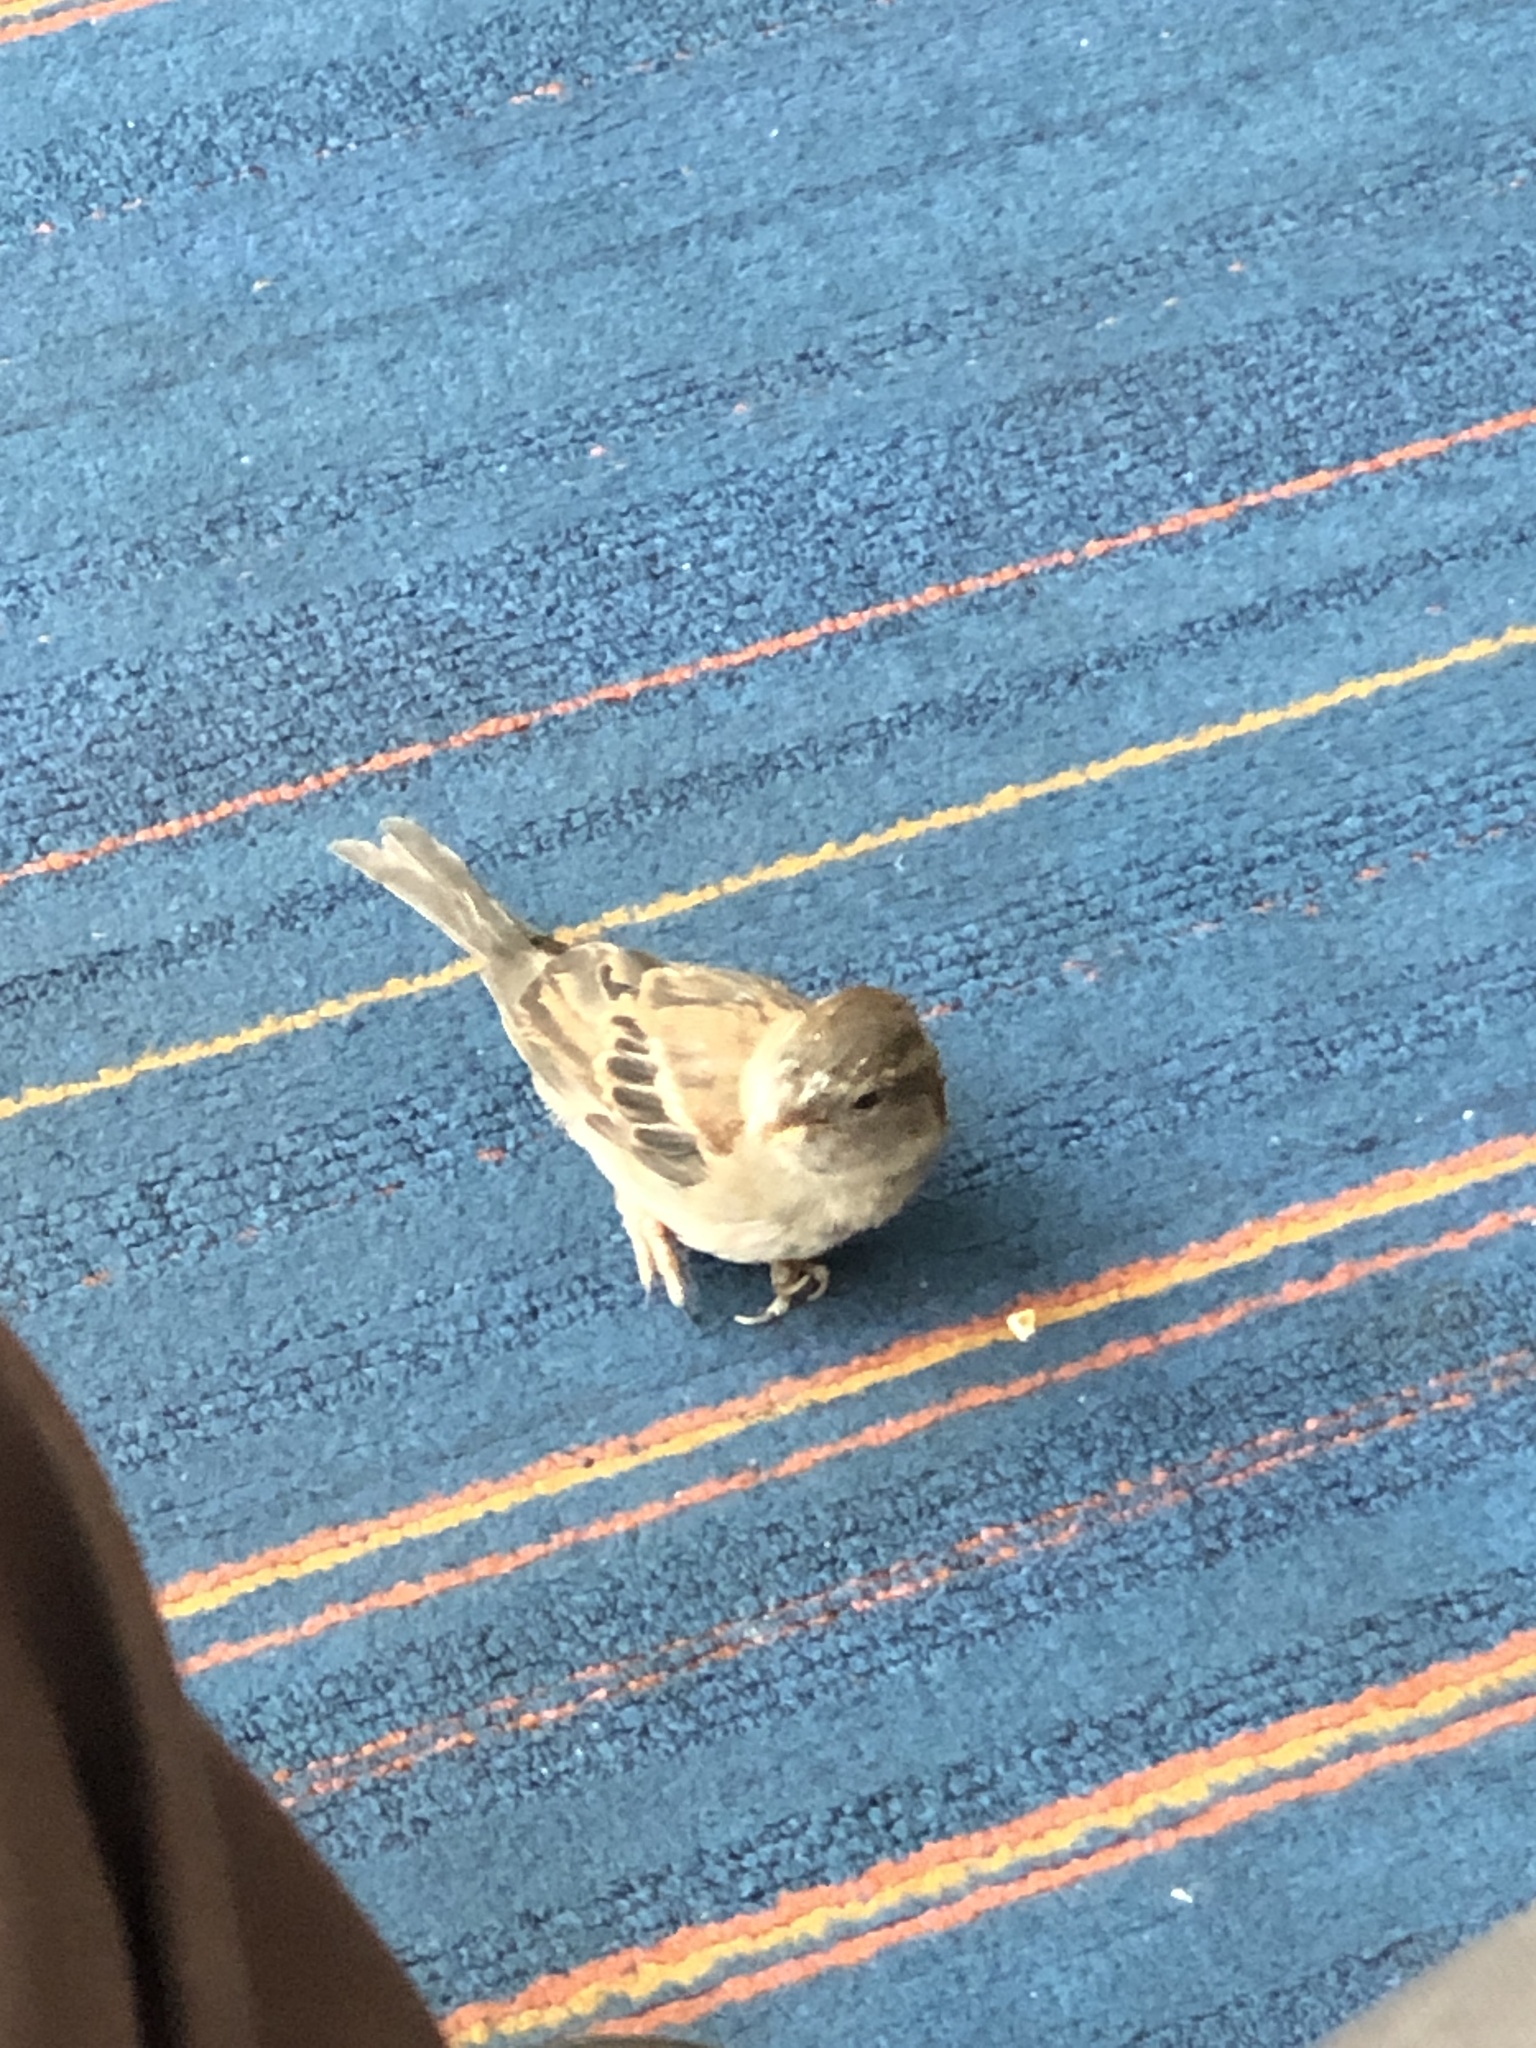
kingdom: Animalia
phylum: Chordata
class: Aves
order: Passeriformes
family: Passeridae
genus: Passer
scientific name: Passer domesticus
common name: House sparrow
